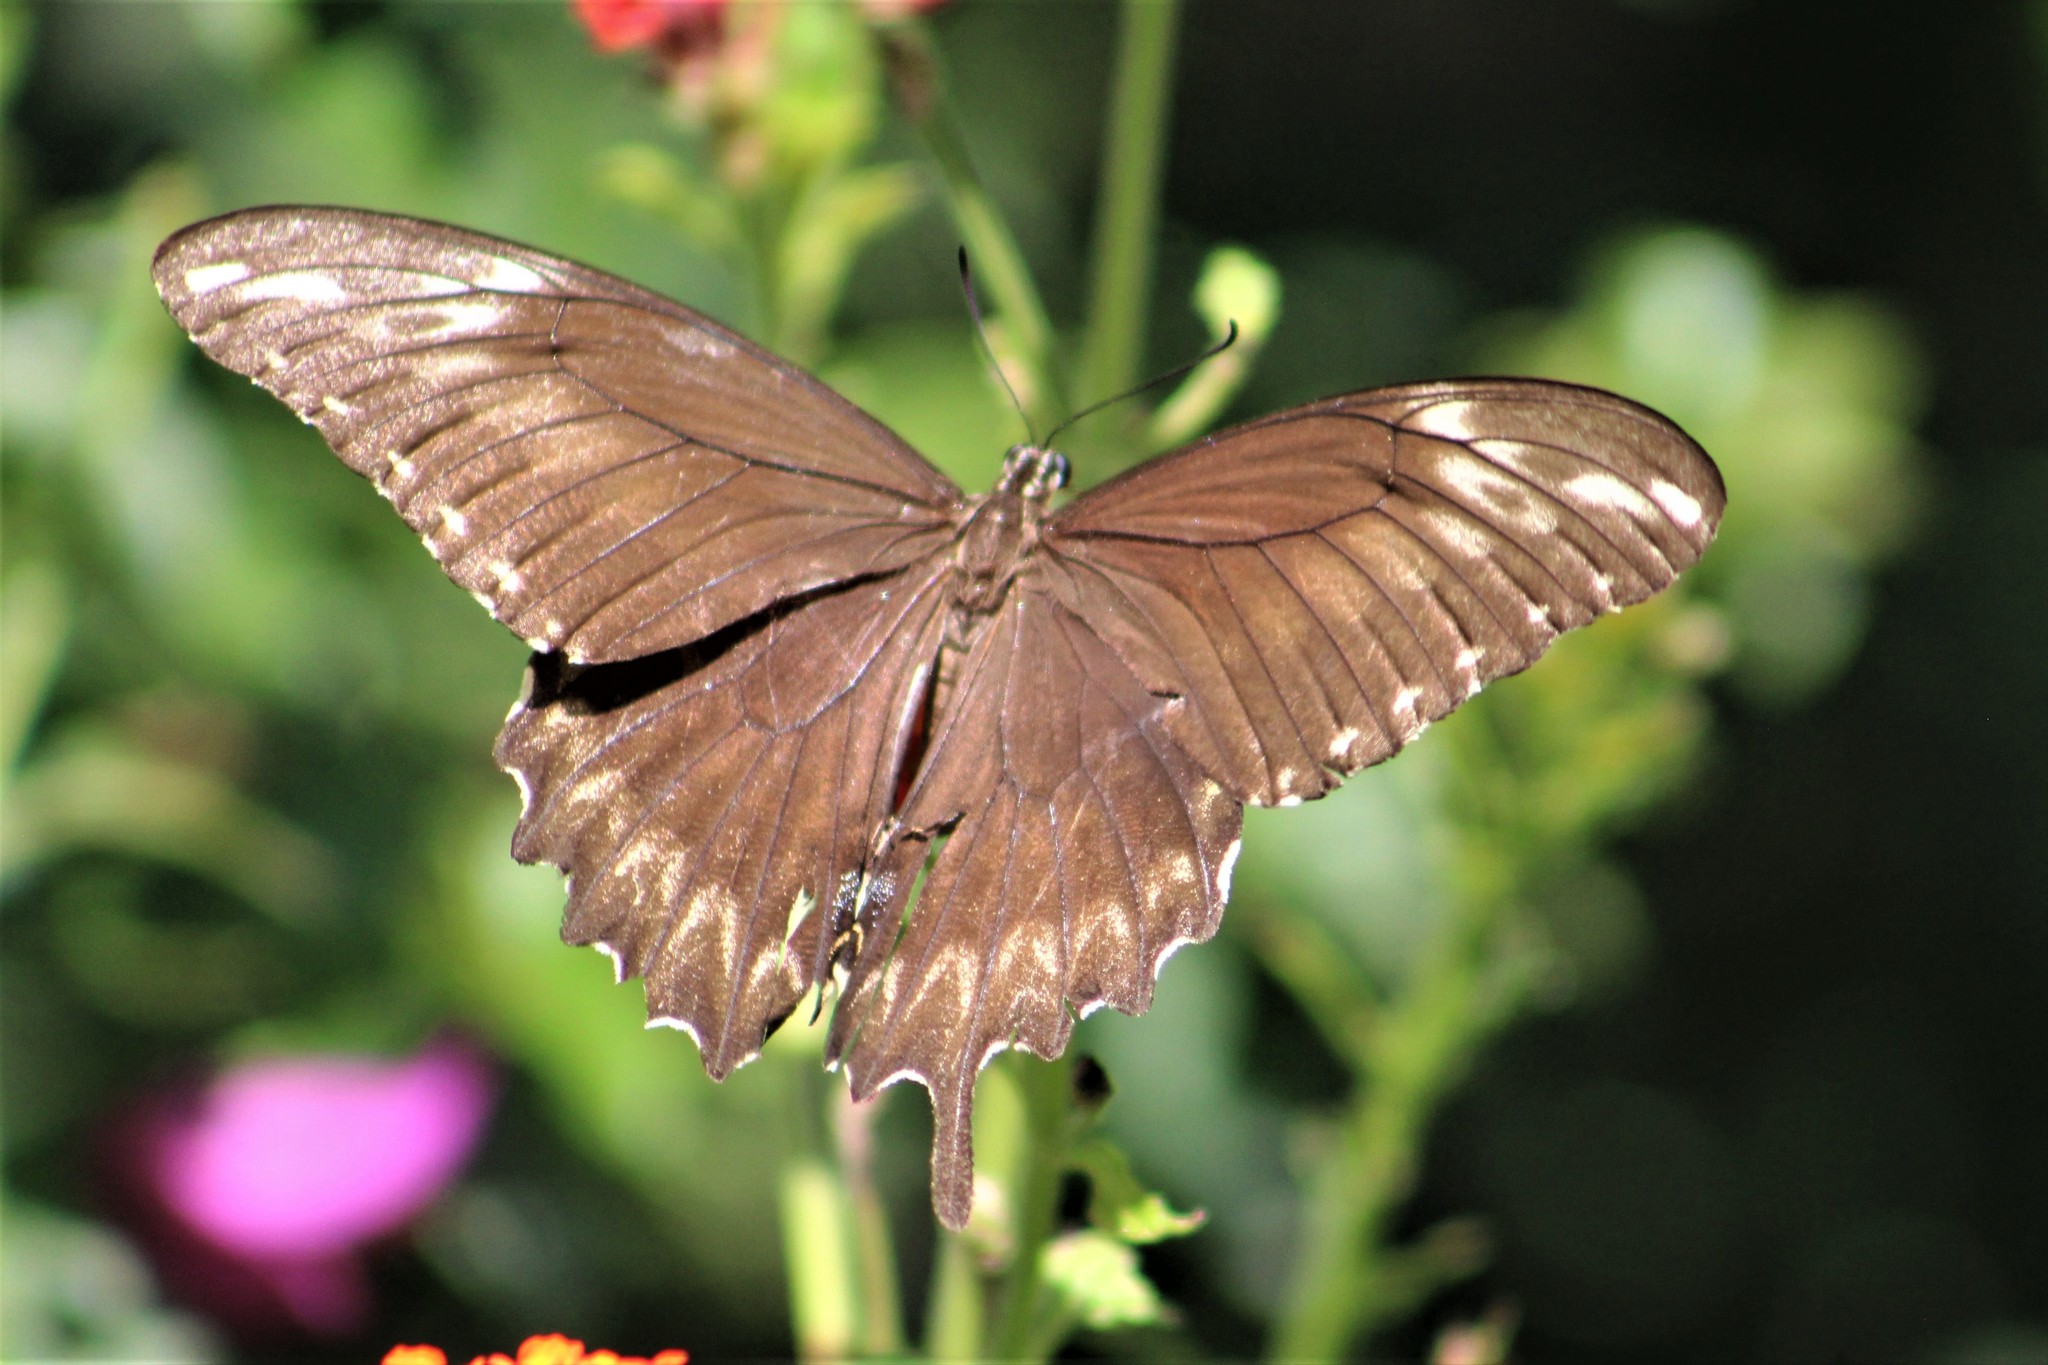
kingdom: Animalia
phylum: Arthropoda
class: Insecta
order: Lepidoptera
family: Papilionidae
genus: Papilio
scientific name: Papilio ornythion
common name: Ornythion swallowtail
